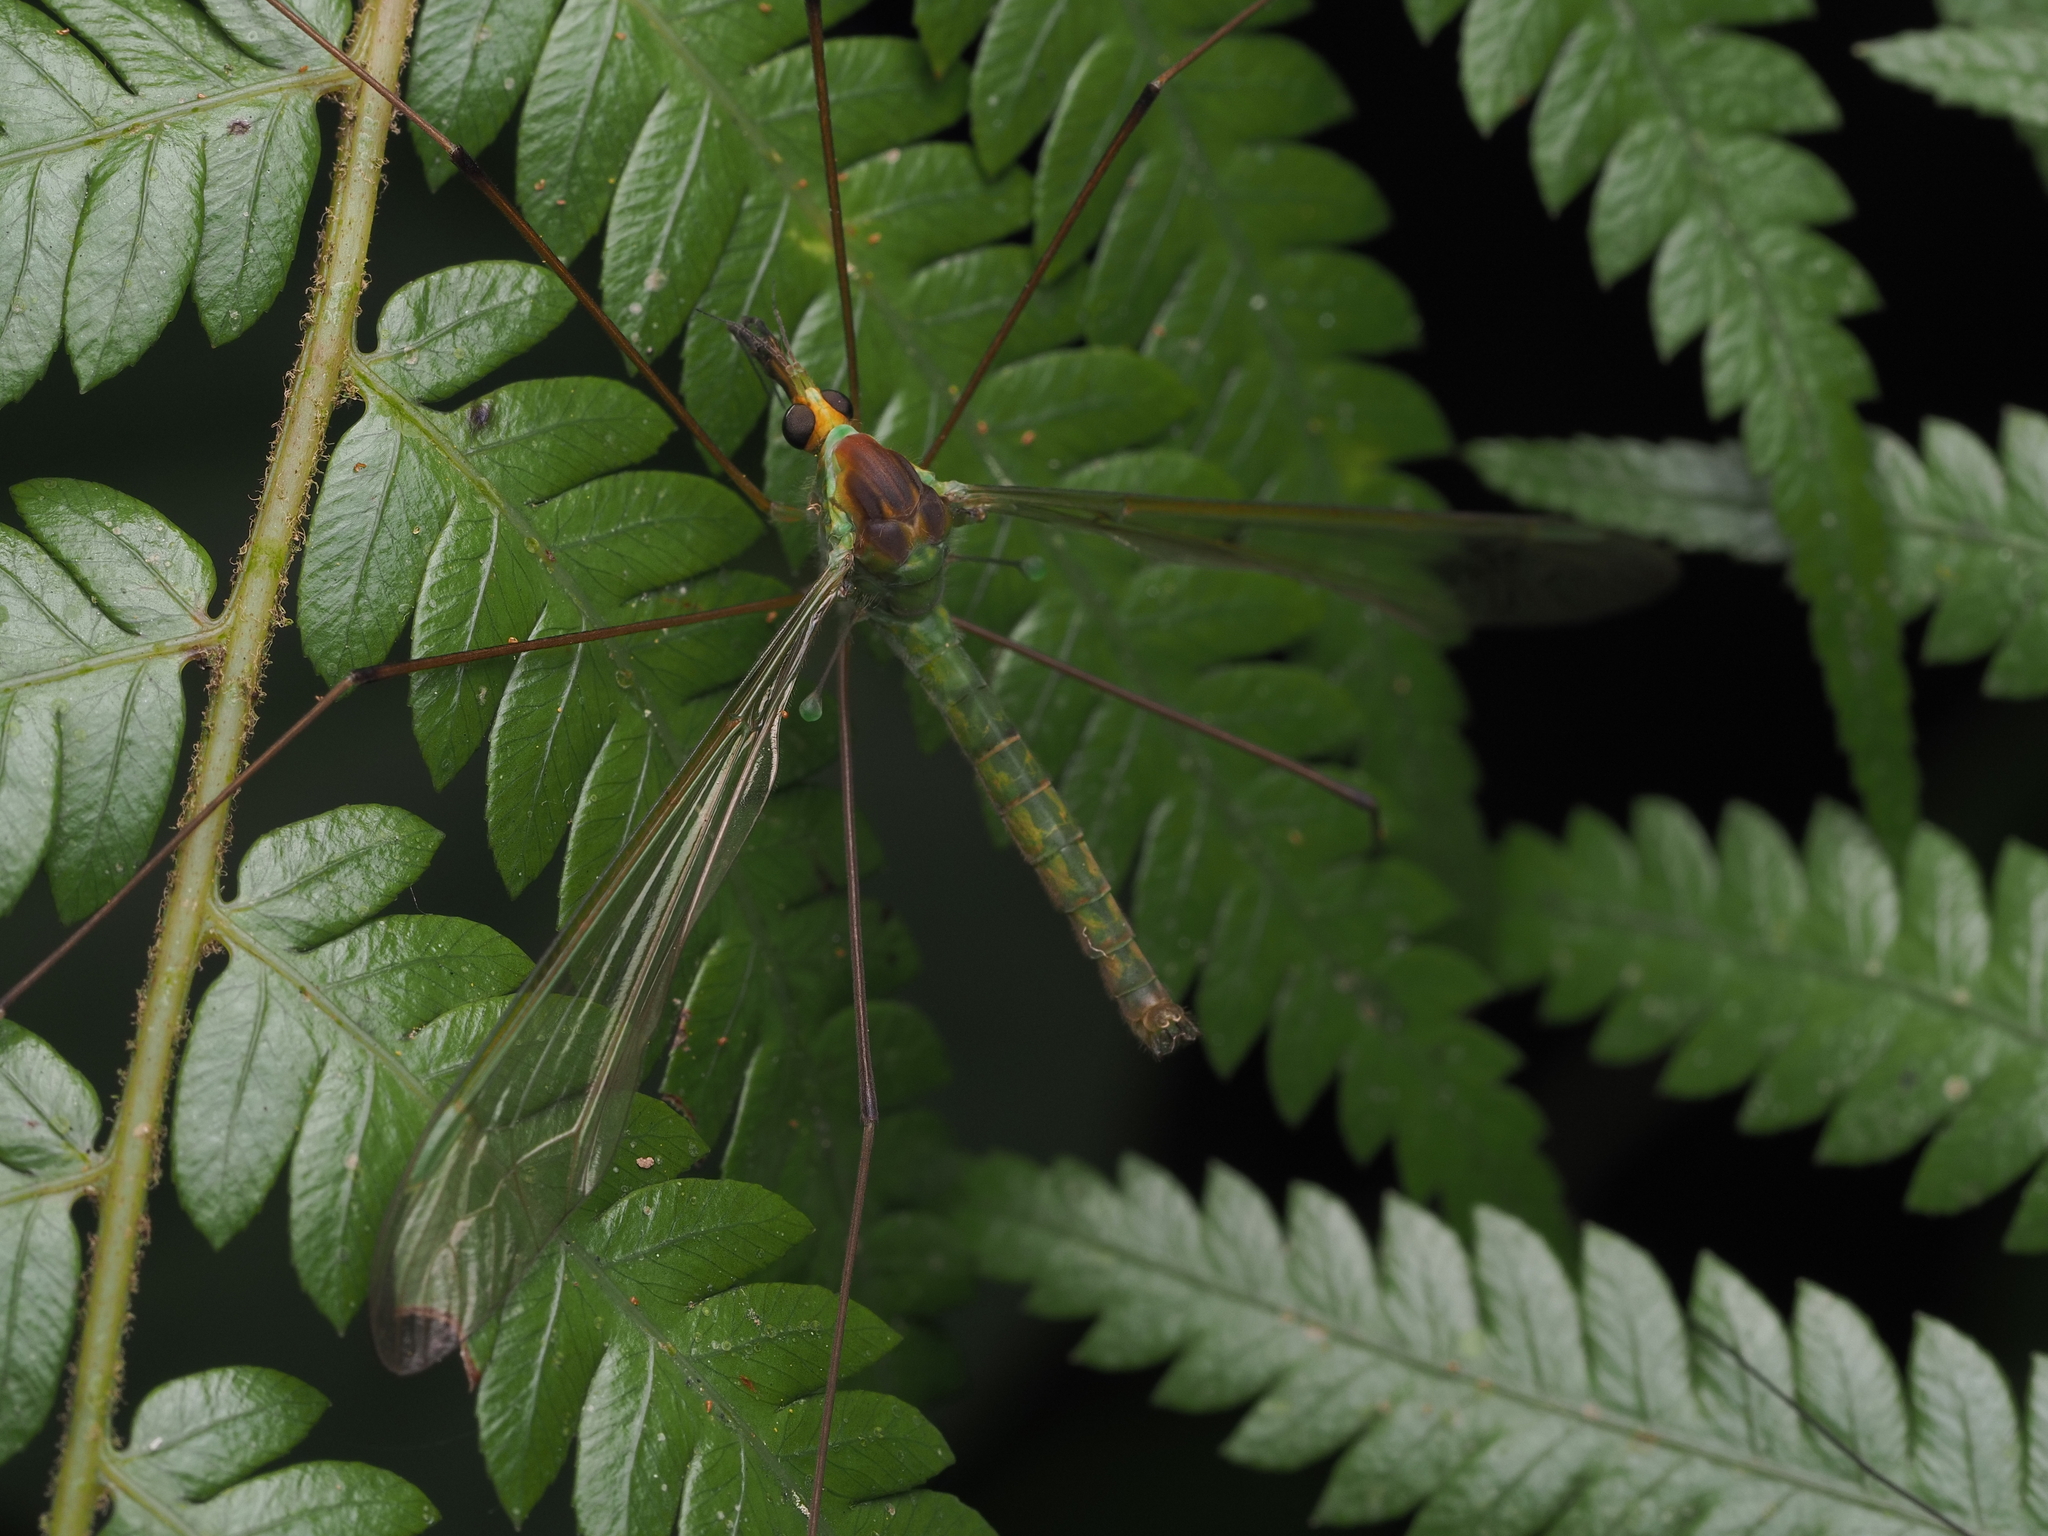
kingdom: Animalia
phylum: Arthropoda
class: Insecta
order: Diptera
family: Tipulidae
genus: Leptotarsus
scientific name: Leptotarsus albistigma
